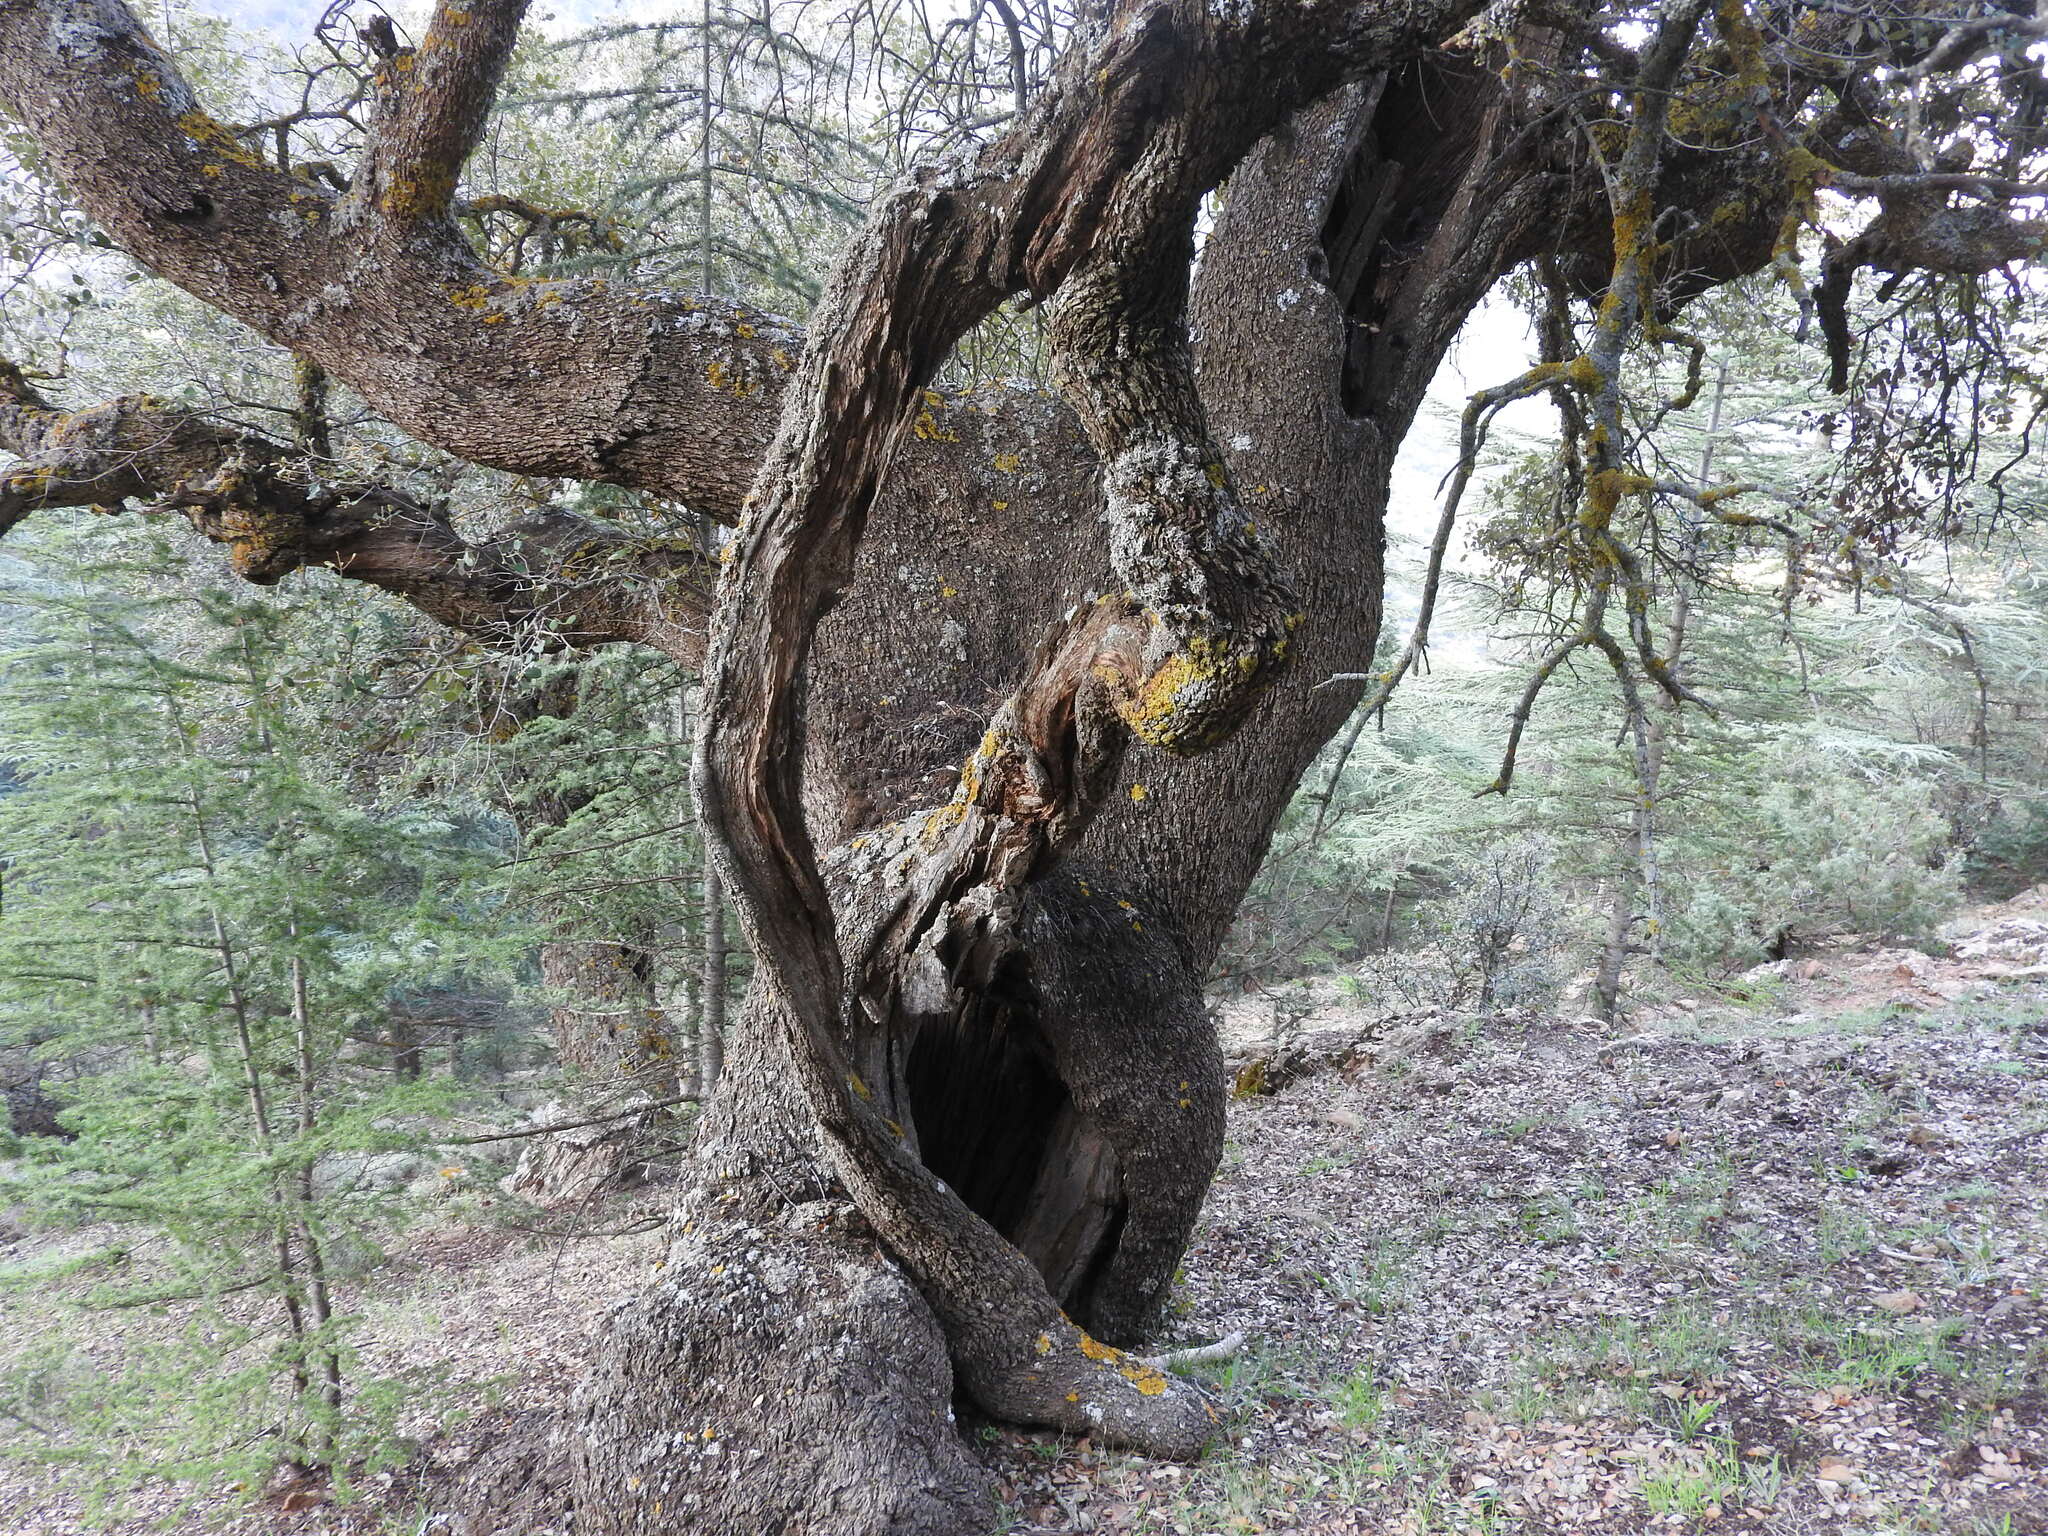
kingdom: Plantae
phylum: Tracheophyta
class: Magnoliopsida
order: Fagales
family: Fagaceae
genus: Quercus
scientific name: Quercus rotundifolia
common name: Holm oak
